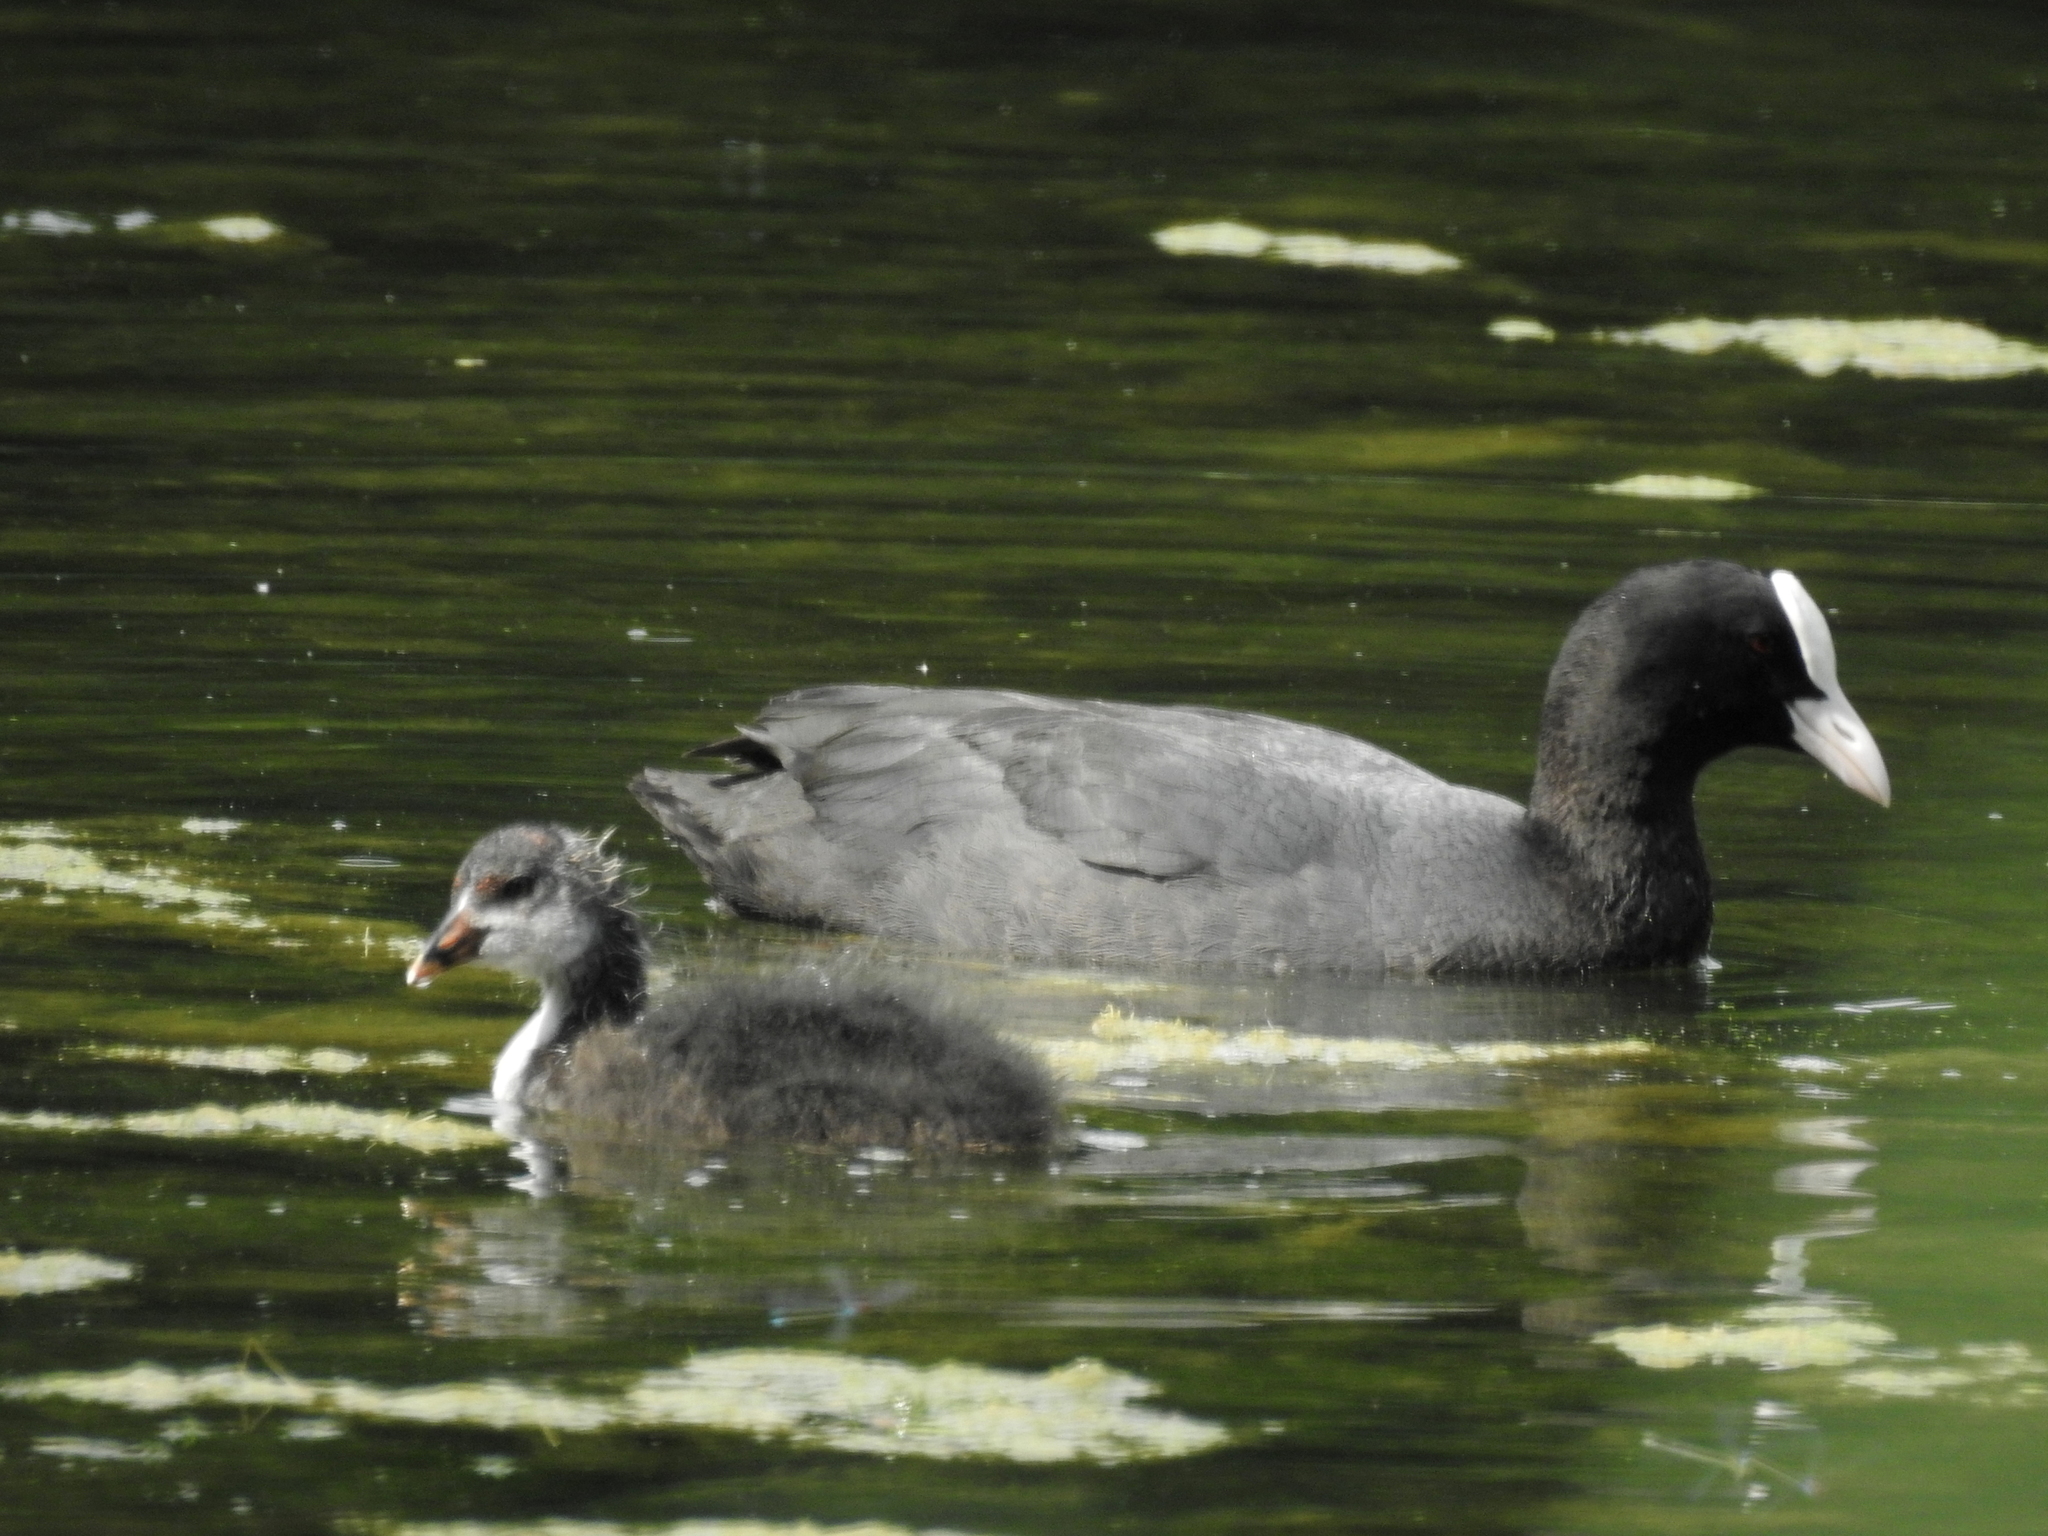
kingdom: Animalia
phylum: Chordata
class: Aves
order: Gruiformes
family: Rallidae
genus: Fulica
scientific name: Fulica atra
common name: Eurasian coot
